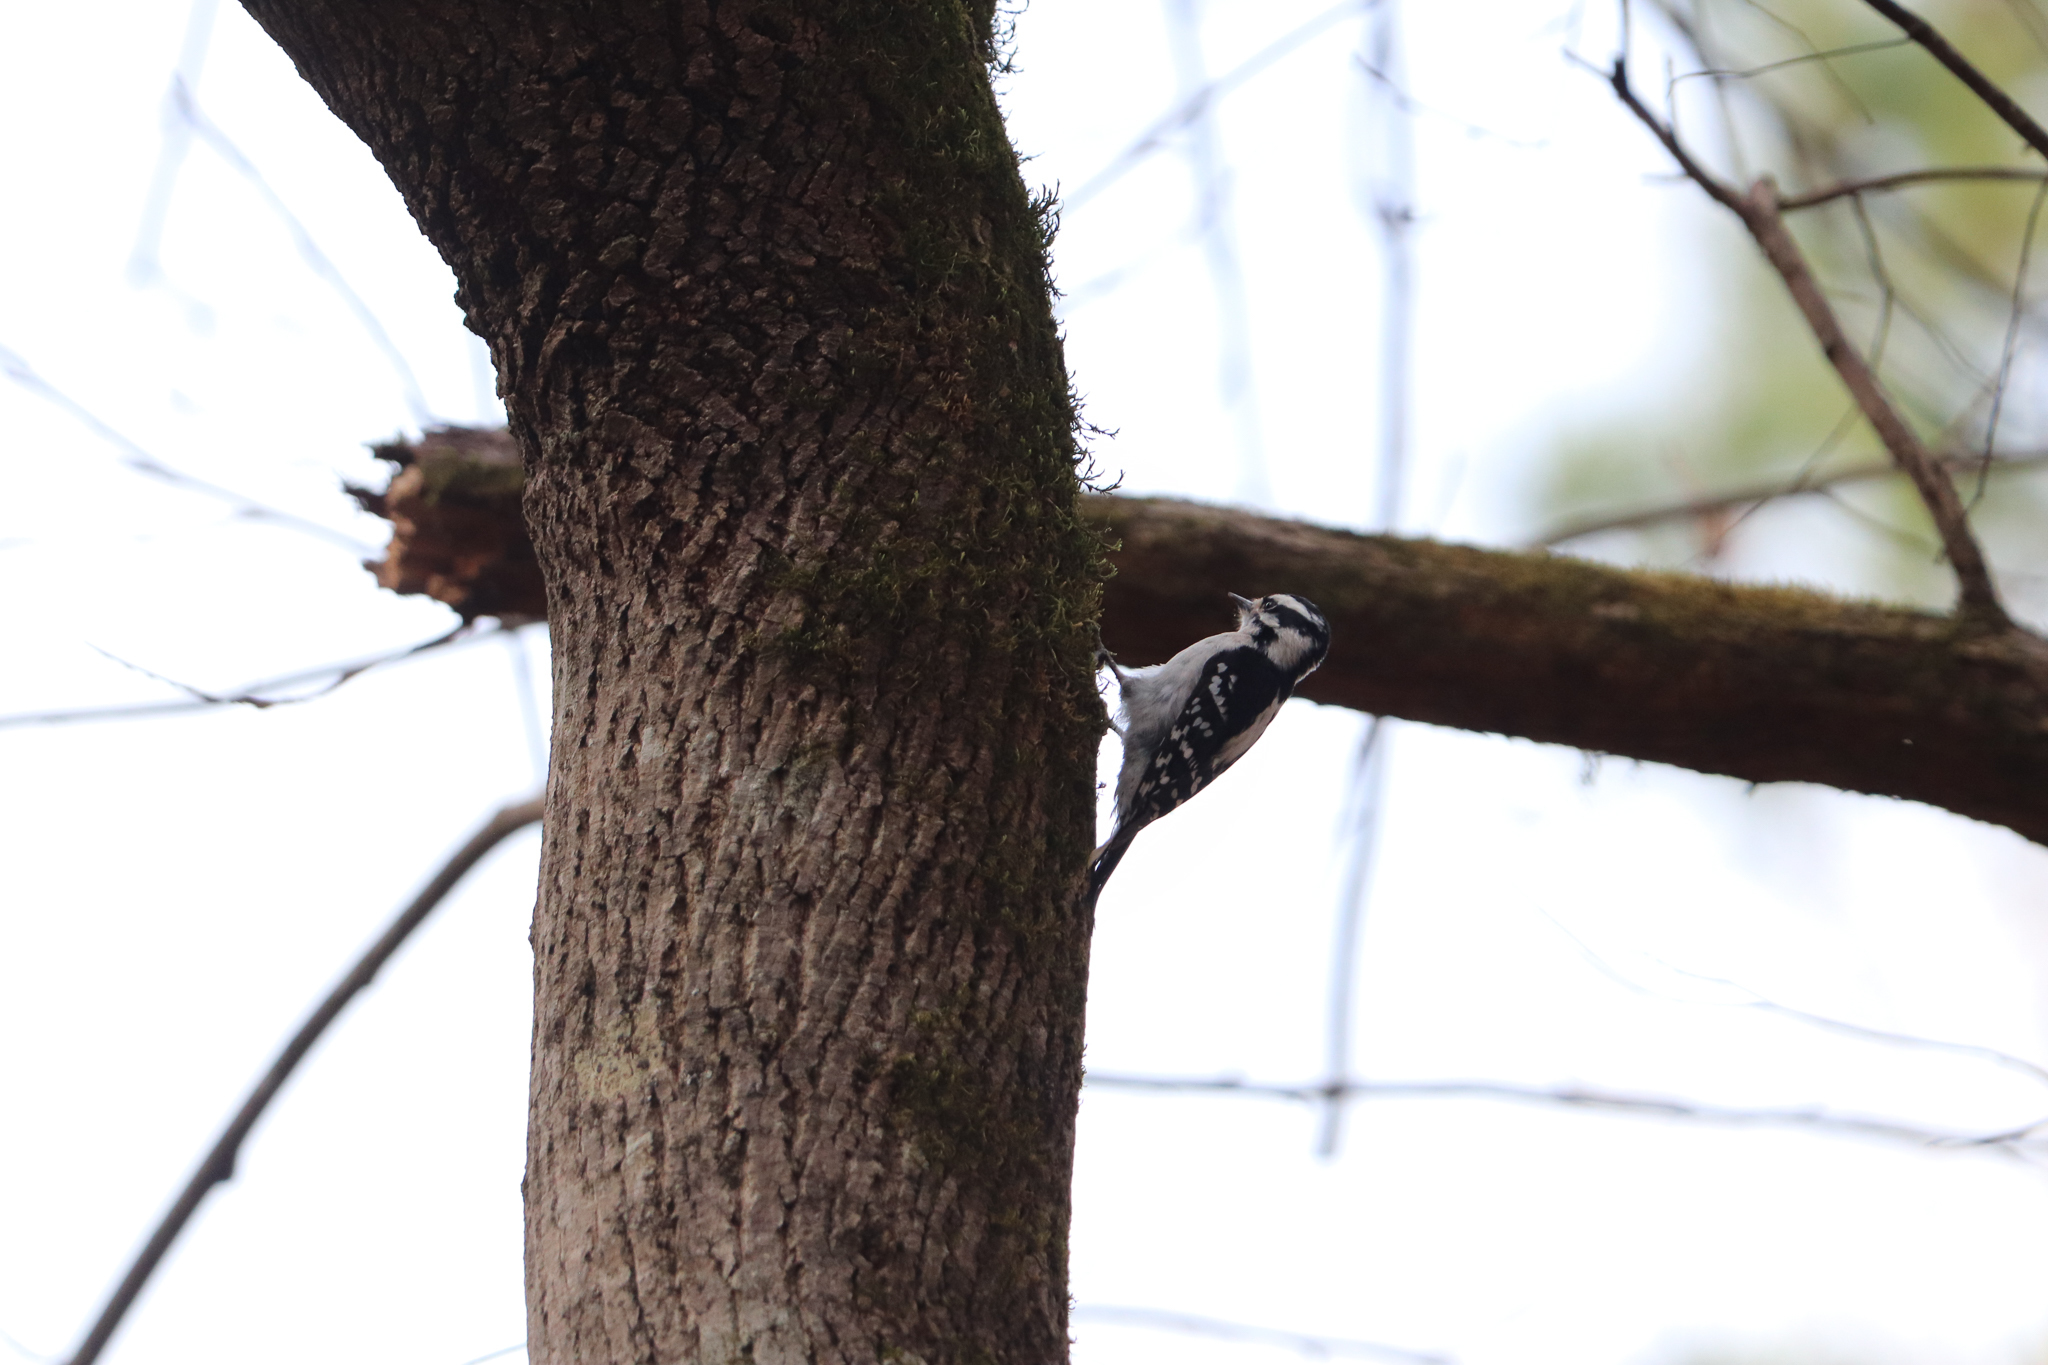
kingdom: Animalia
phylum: Chordata
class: Aves
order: Piciformes
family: Picidae
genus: Dryobates
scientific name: Dryobates pubescens
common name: Downy woodpecker
